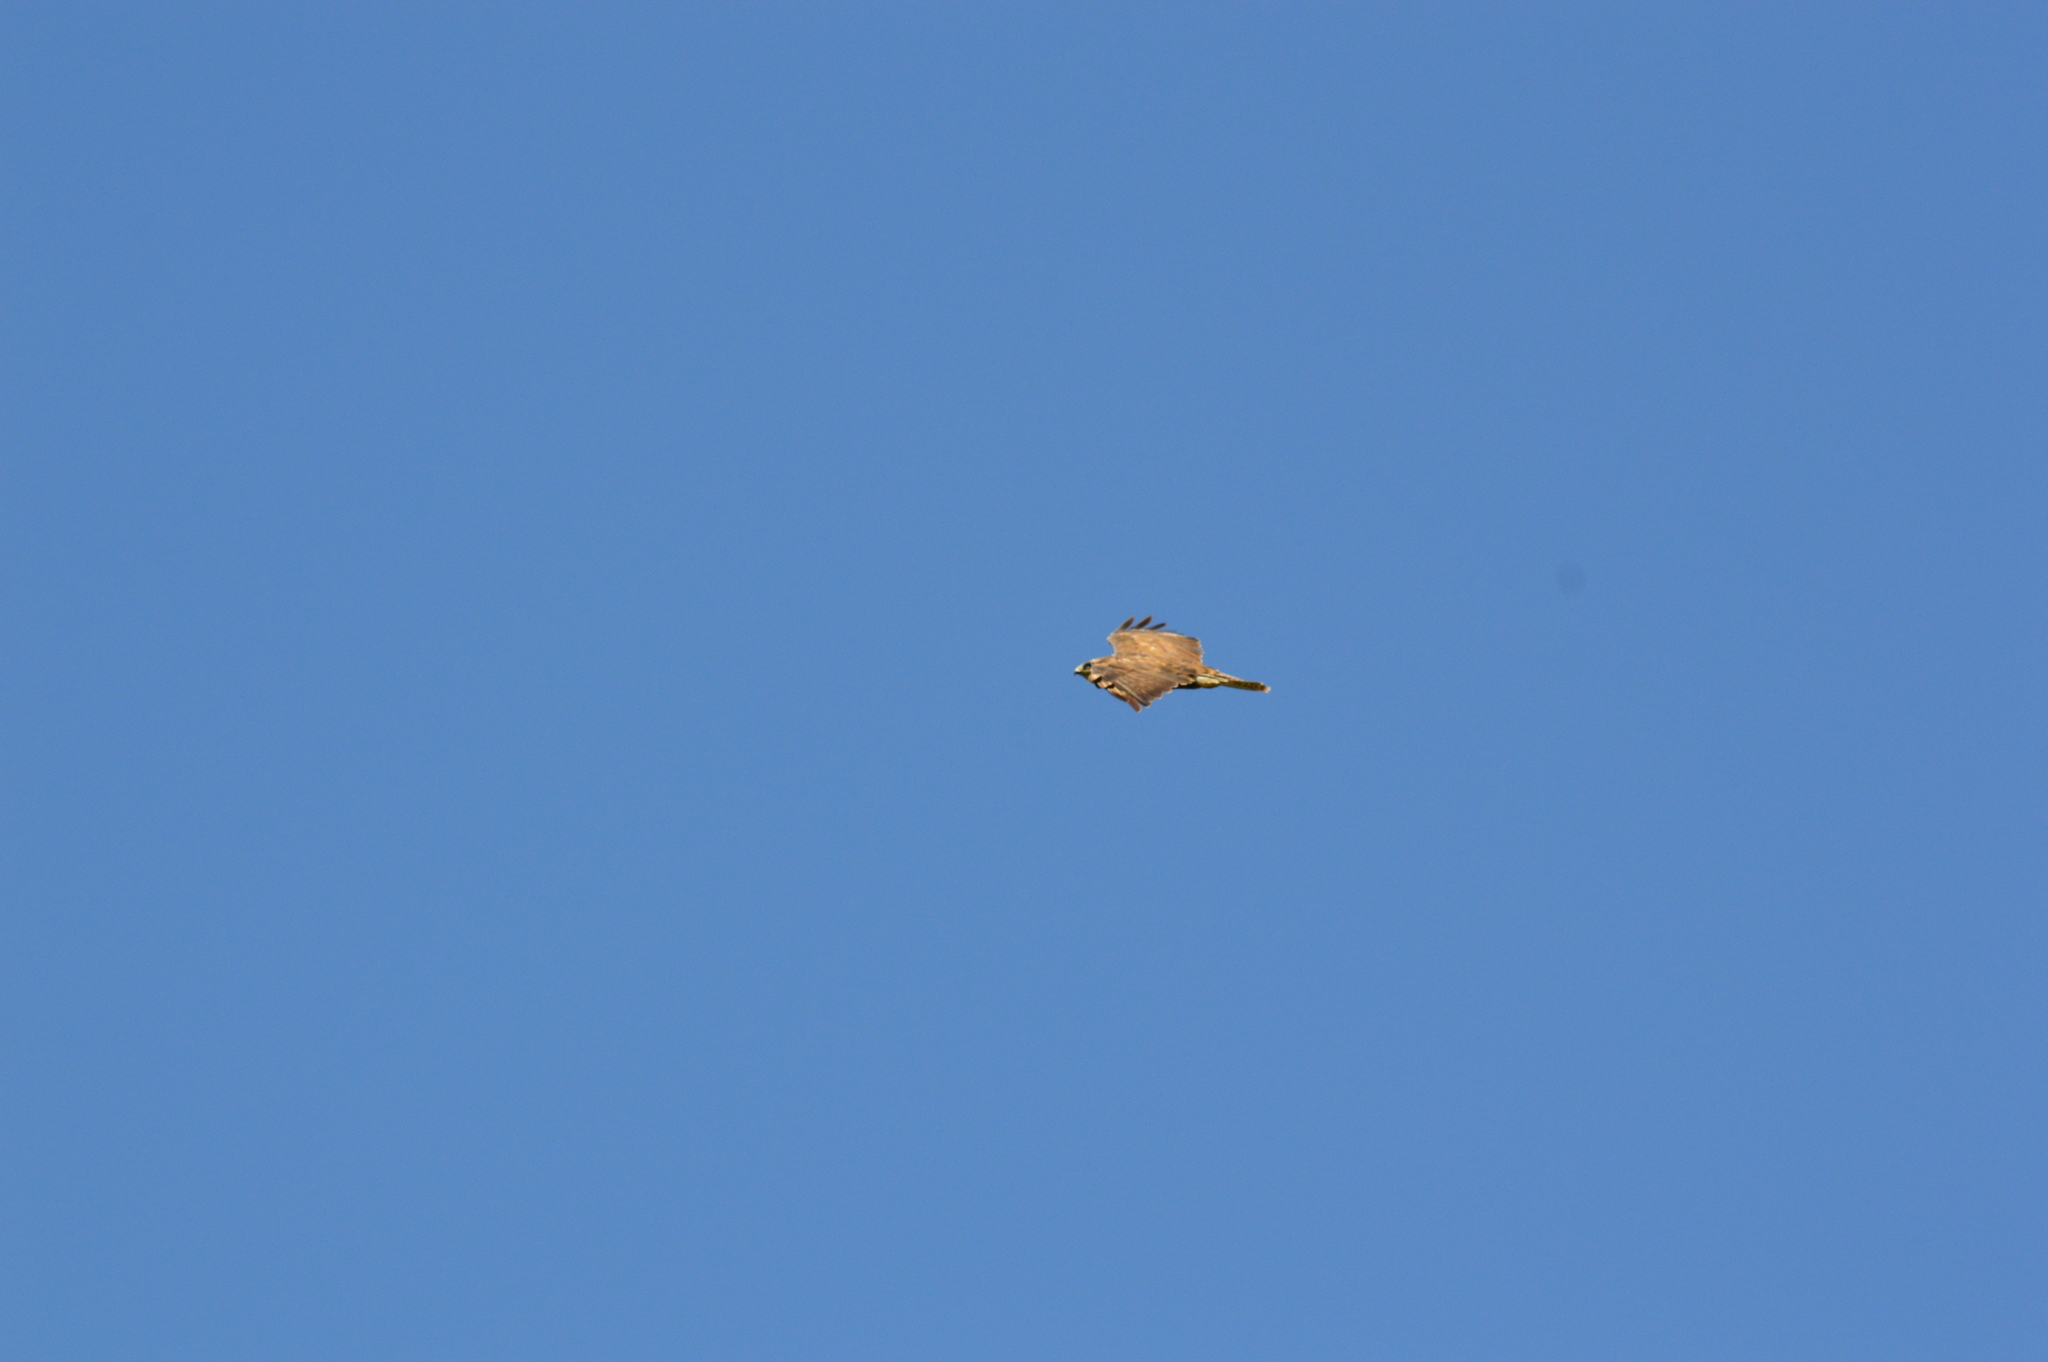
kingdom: Animalia
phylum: Chordata
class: Aves
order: Accipitriformes
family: Accipitridae
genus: Buteo
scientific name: Buteo buteo
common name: Common buzzard
